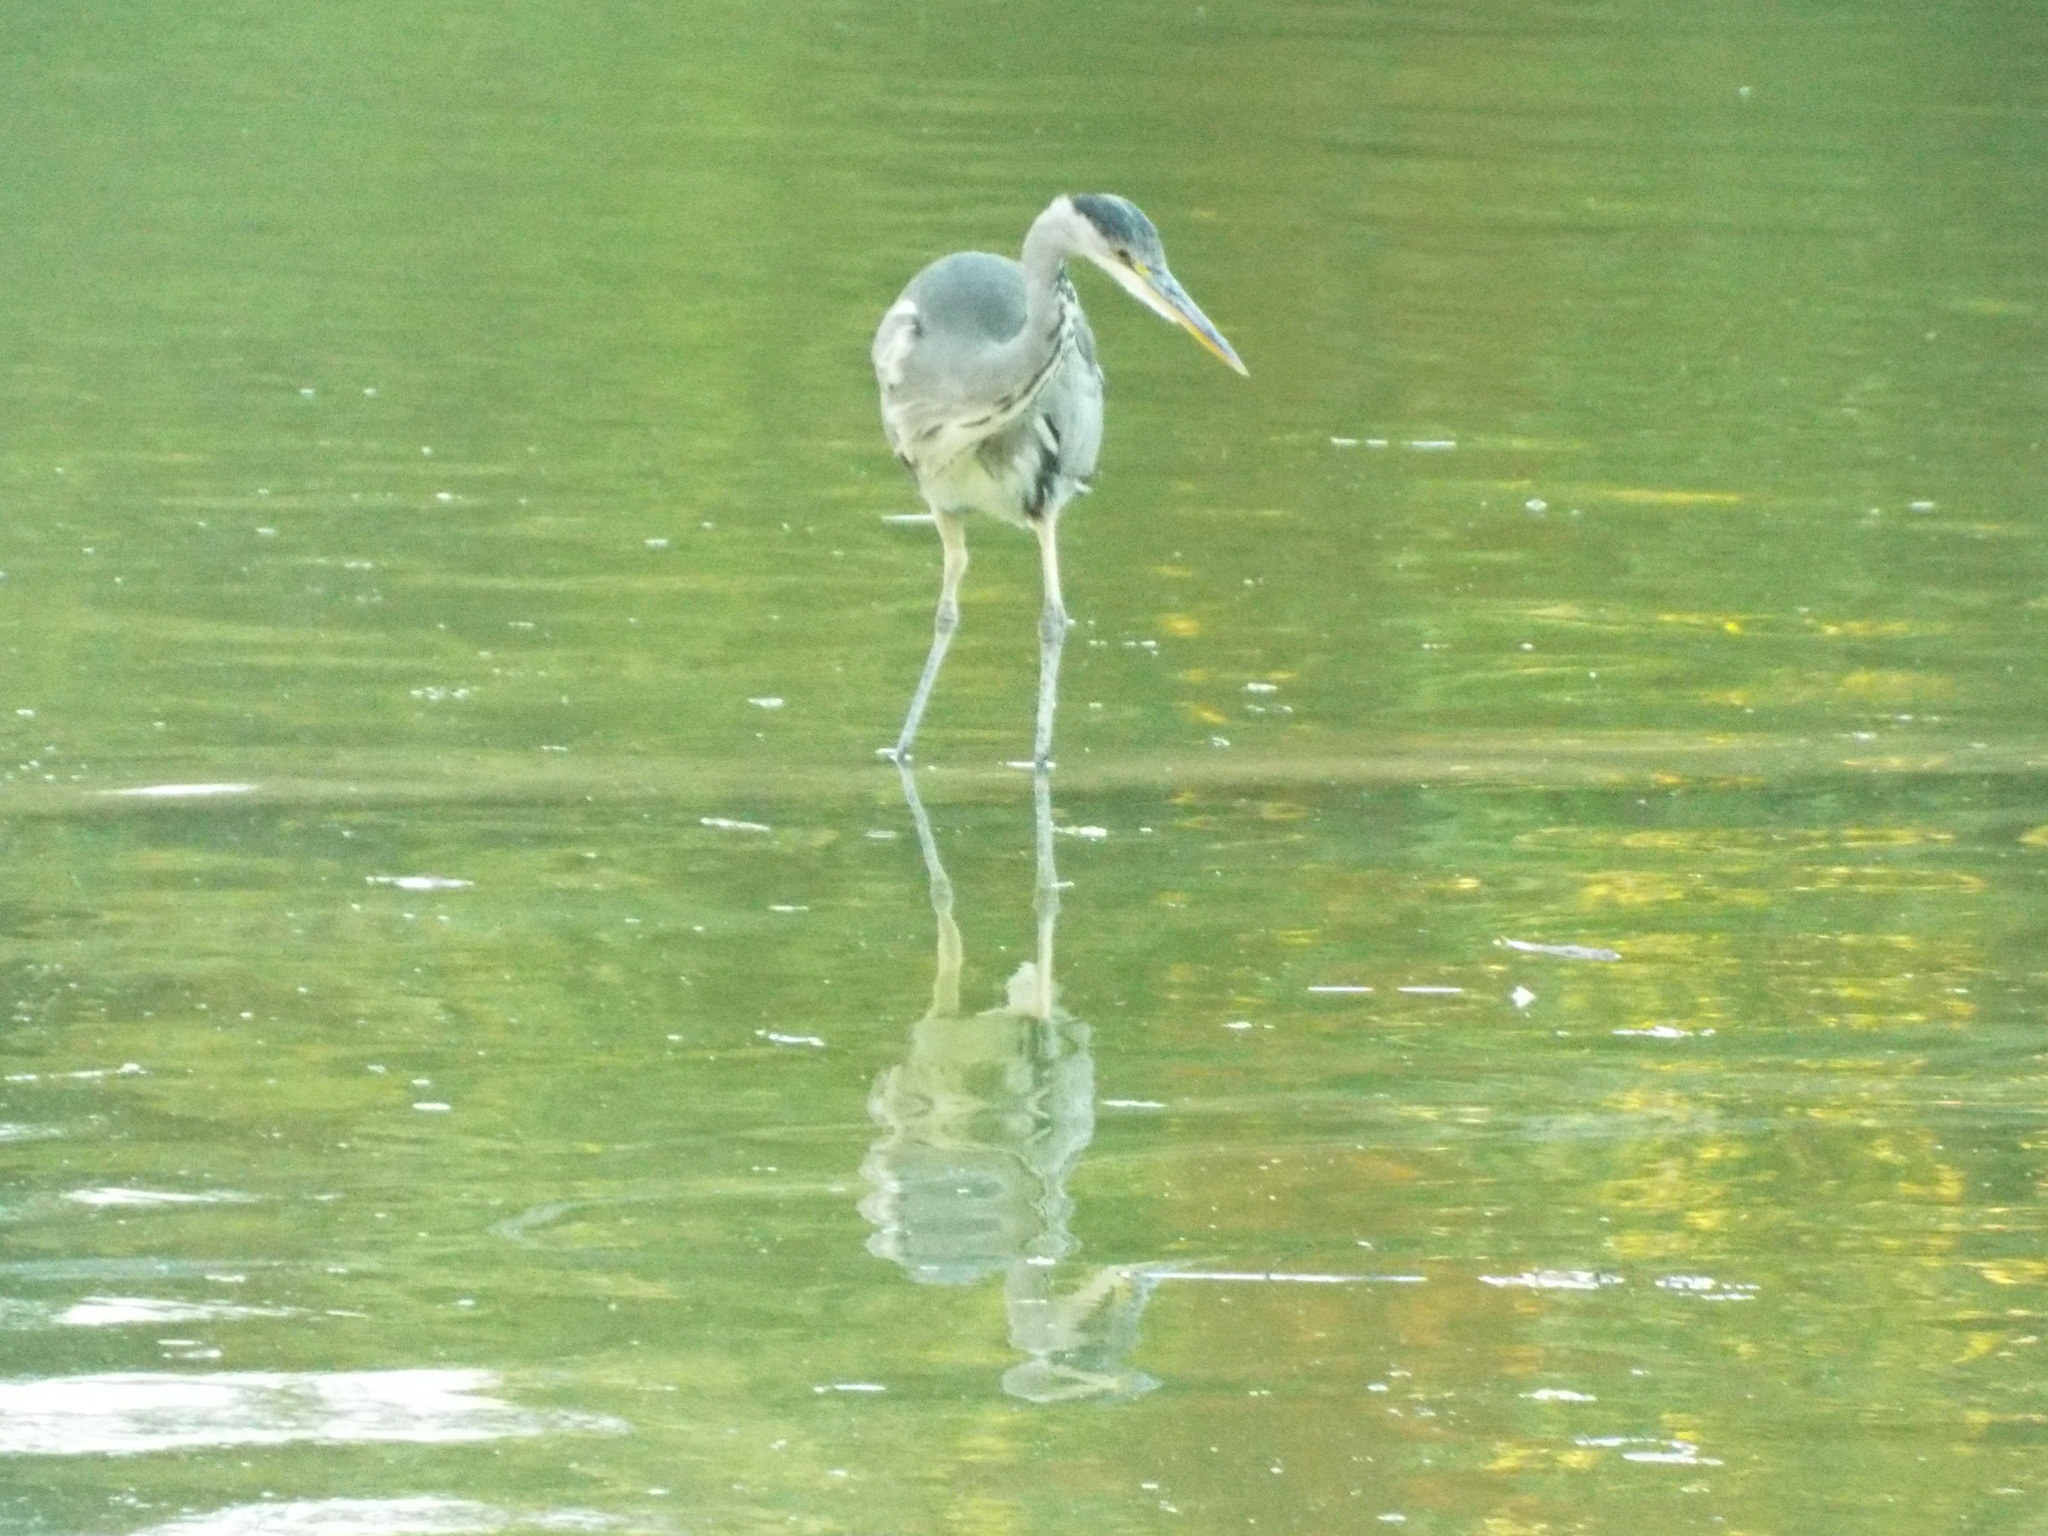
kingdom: Animalia
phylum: Chordata
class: Aves
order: Pelecaniformes
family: Ardeidae
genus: Ardea
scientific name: Ardea cinerea
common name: Grey heron
